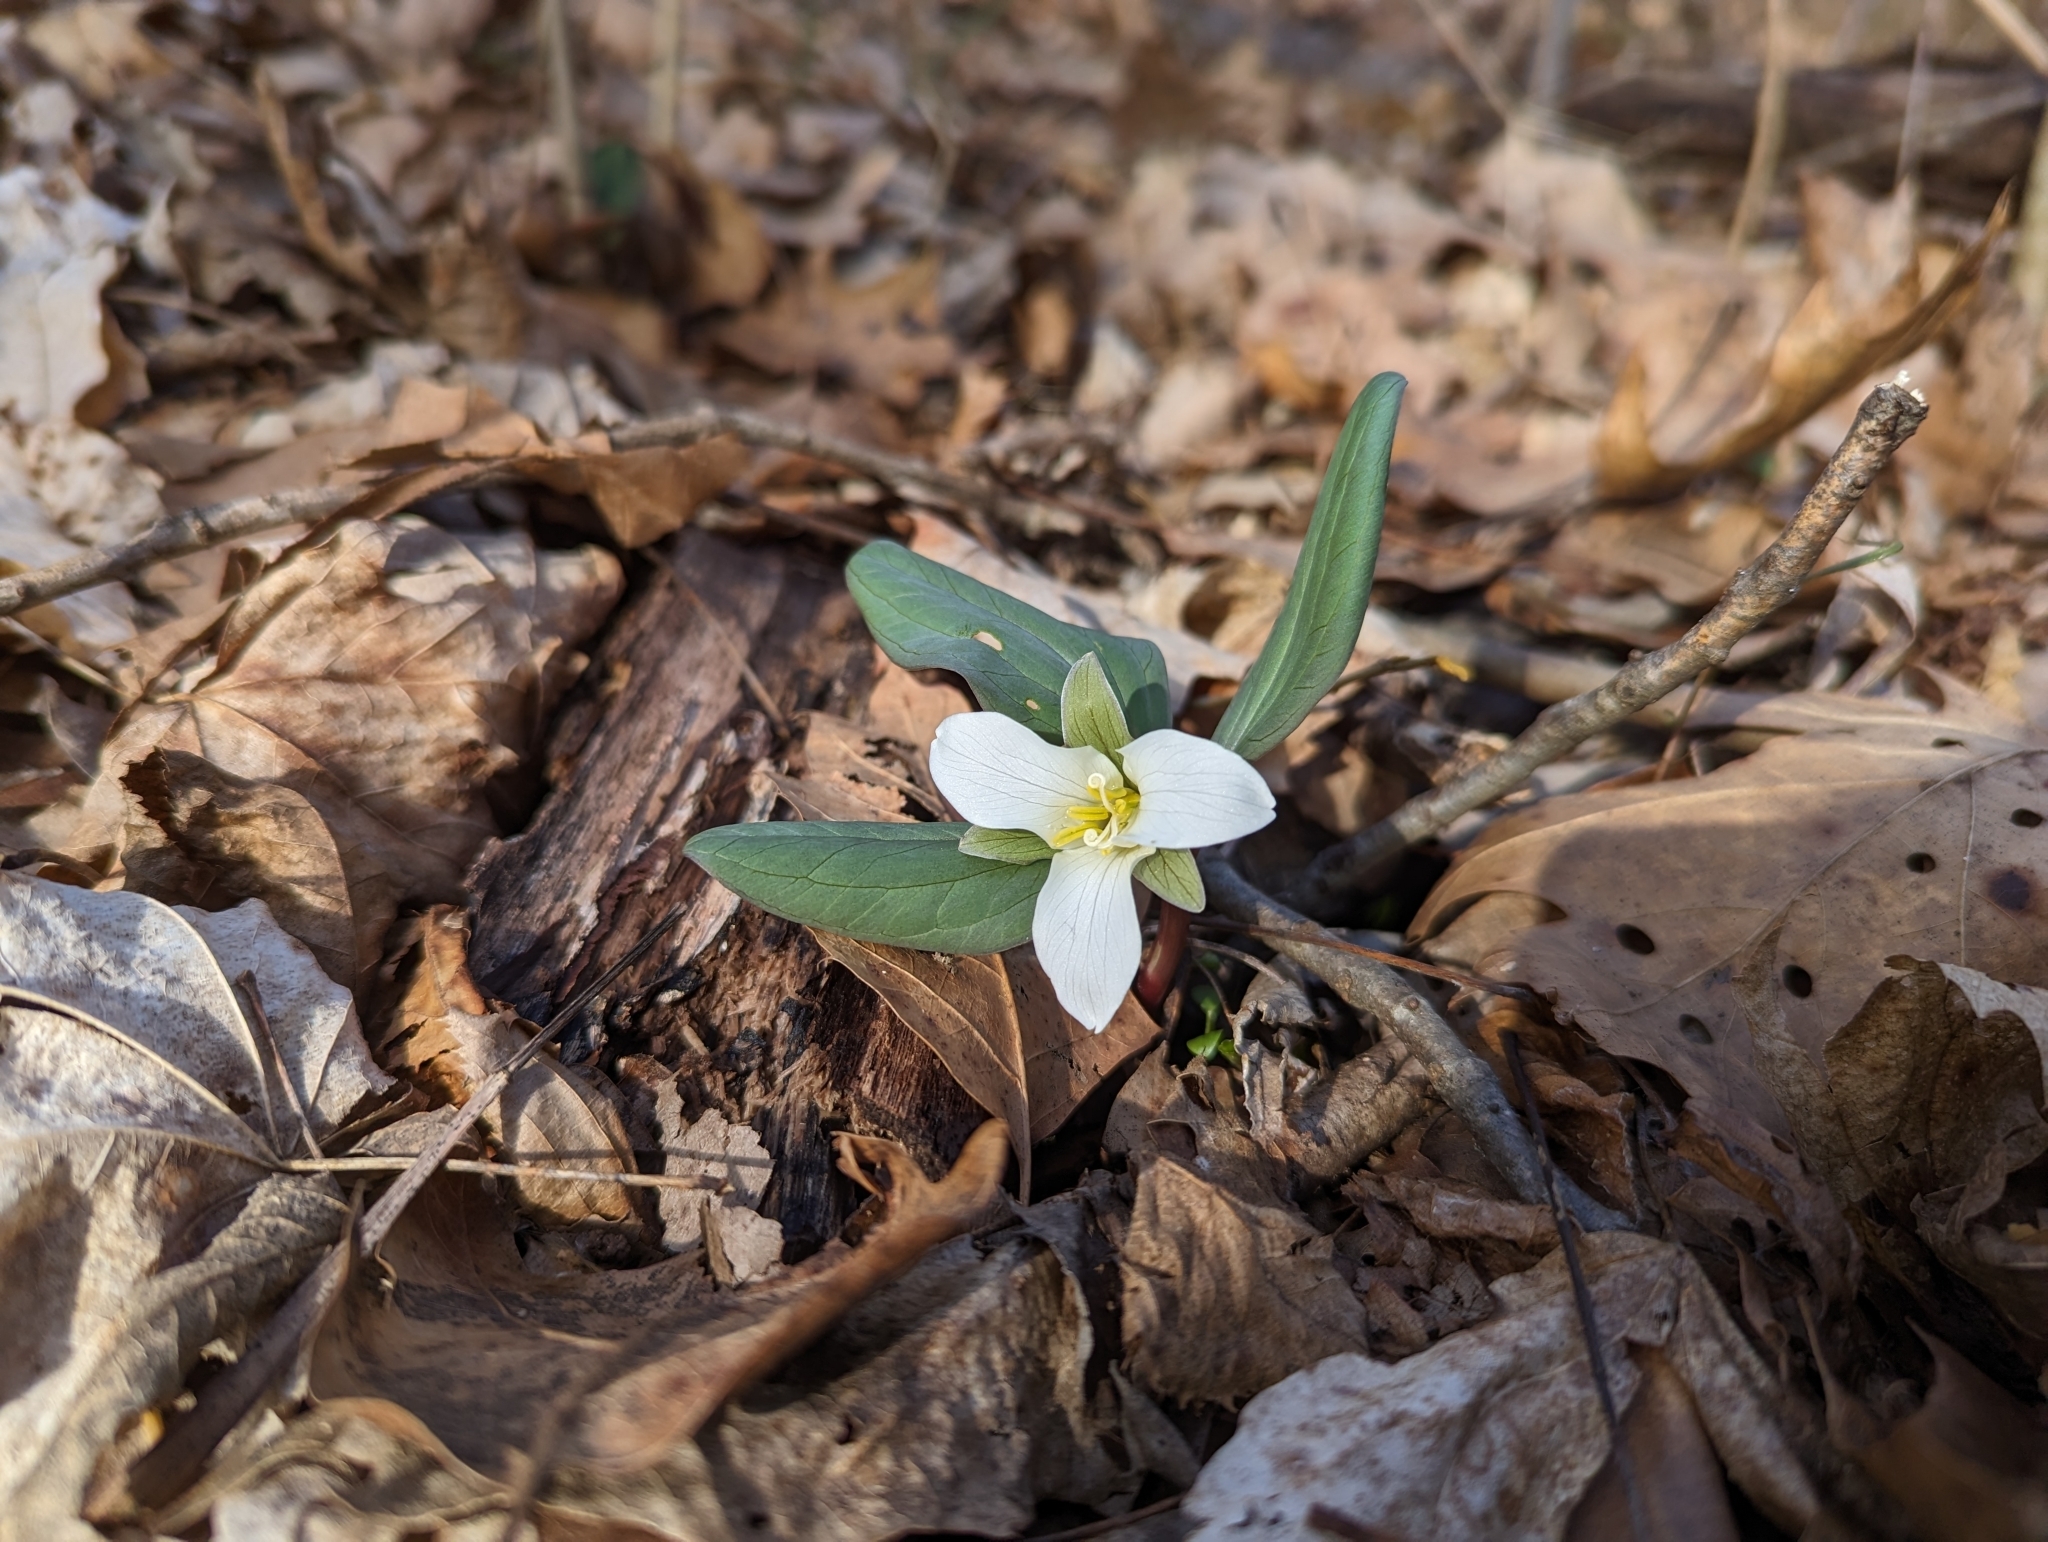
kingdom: Plantae
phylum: Tracheophyta
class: Liliopsida
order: Liliales
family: Melanthiaceae
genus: Trillium
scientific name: Trillium nivale
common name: Dwarf white trillium
